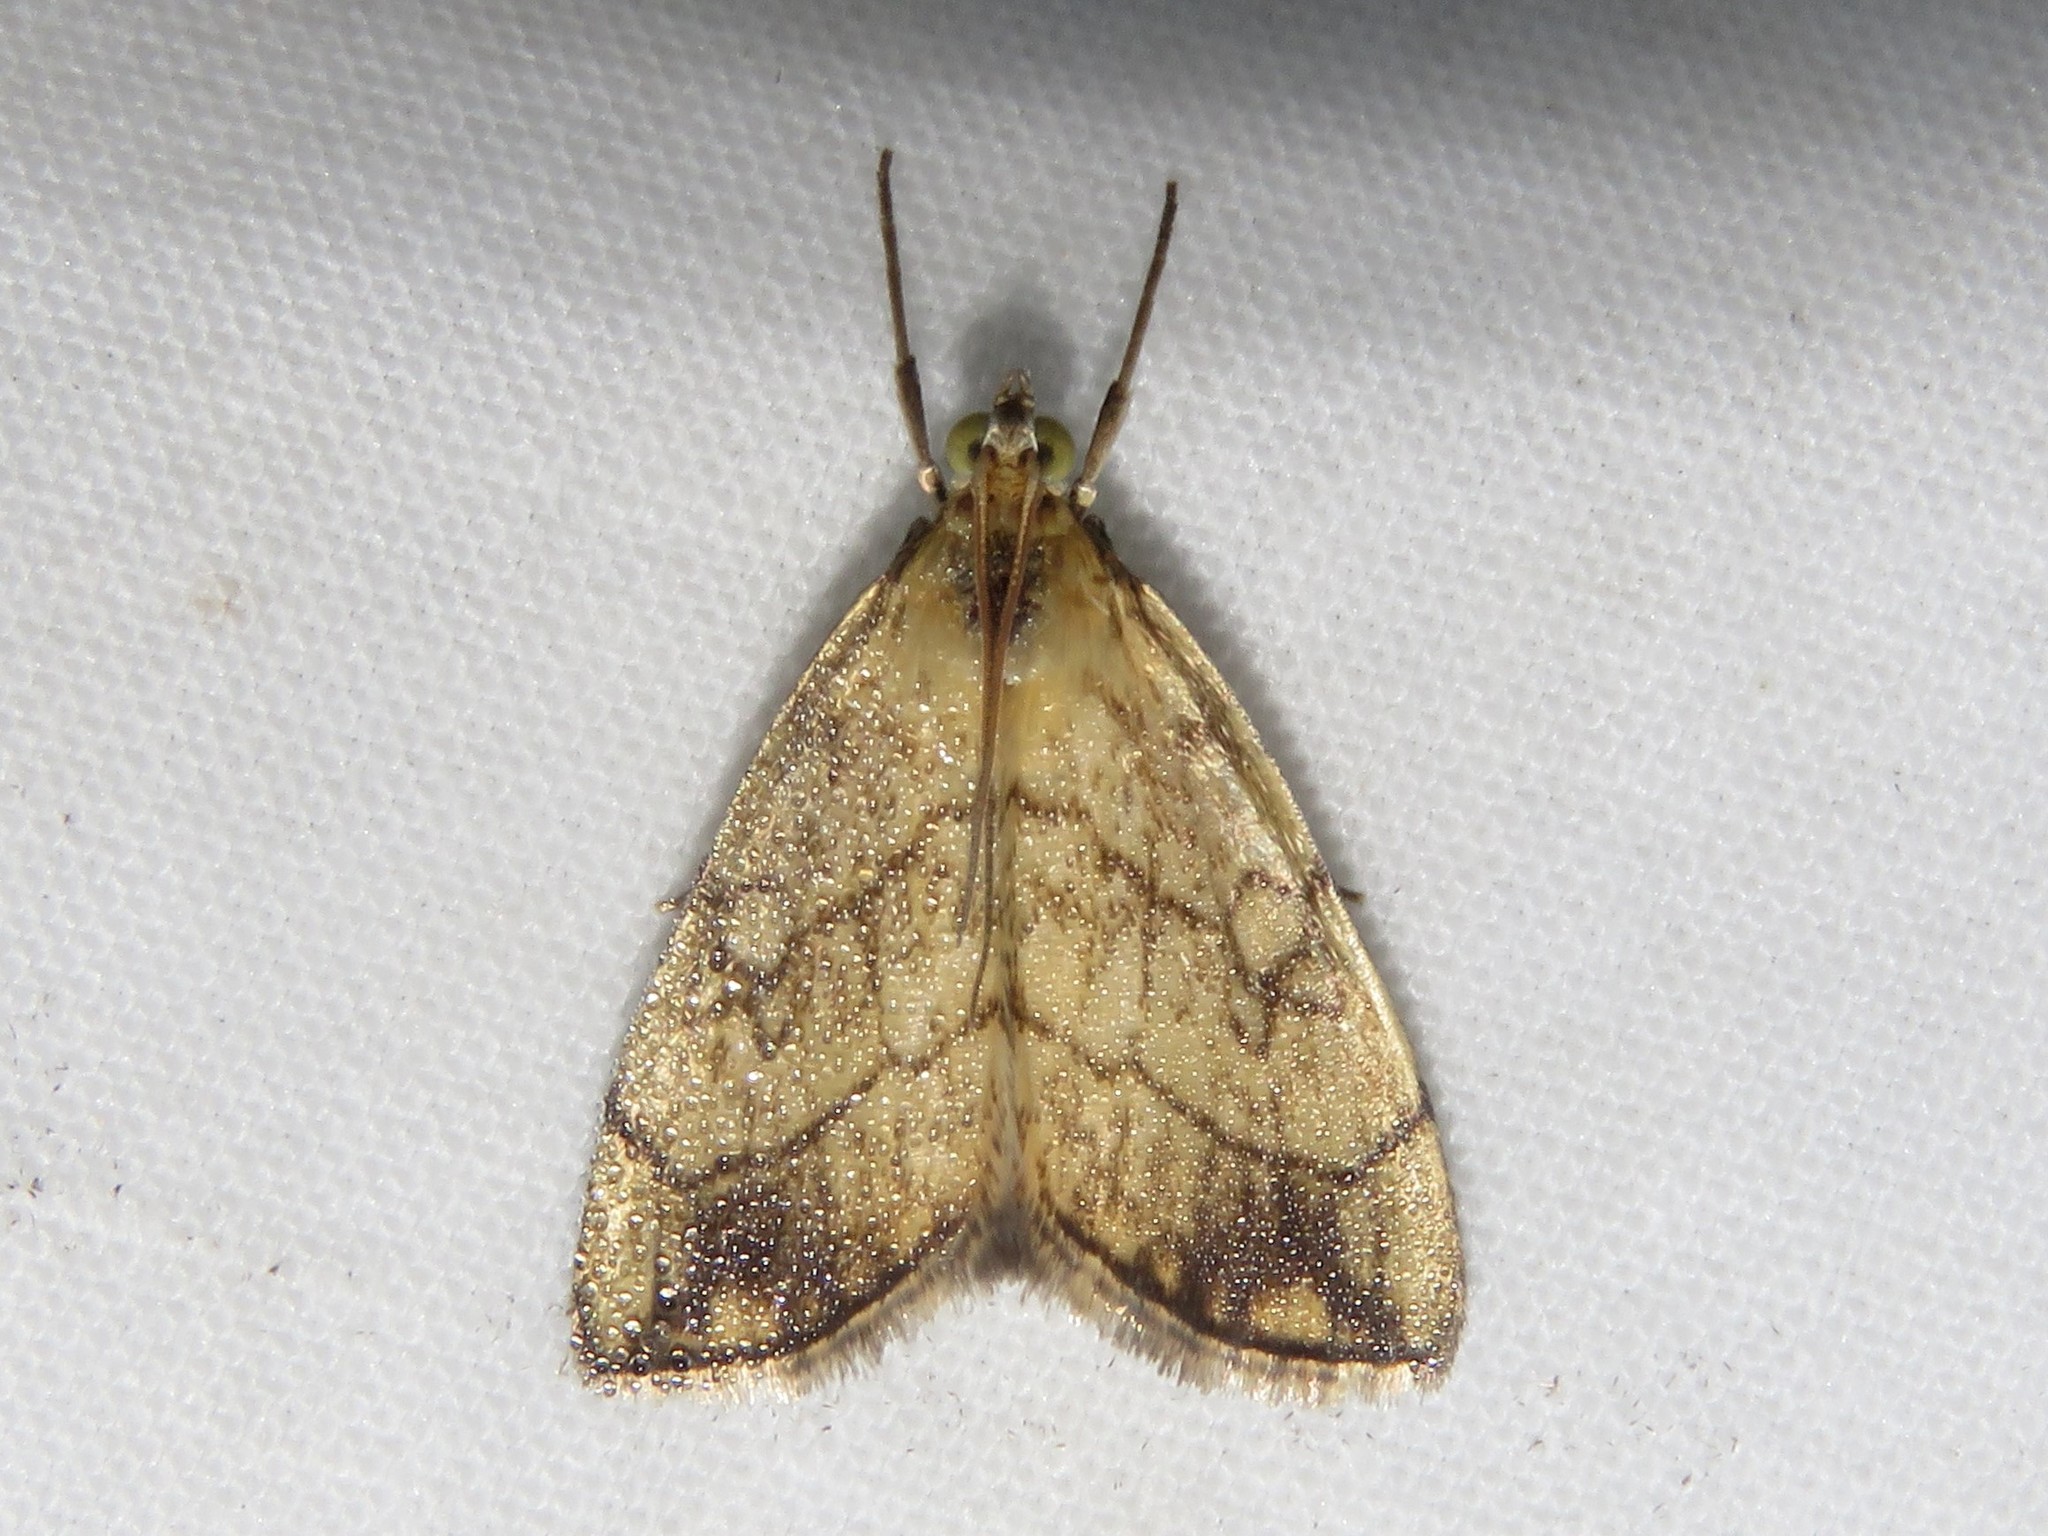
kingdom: Animalia
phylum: Arthropoda
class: Insecta
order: Lepidoptera
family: Crambidae
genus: Evergestis
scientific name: Evergestis pallidata
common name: Chequered pearl
